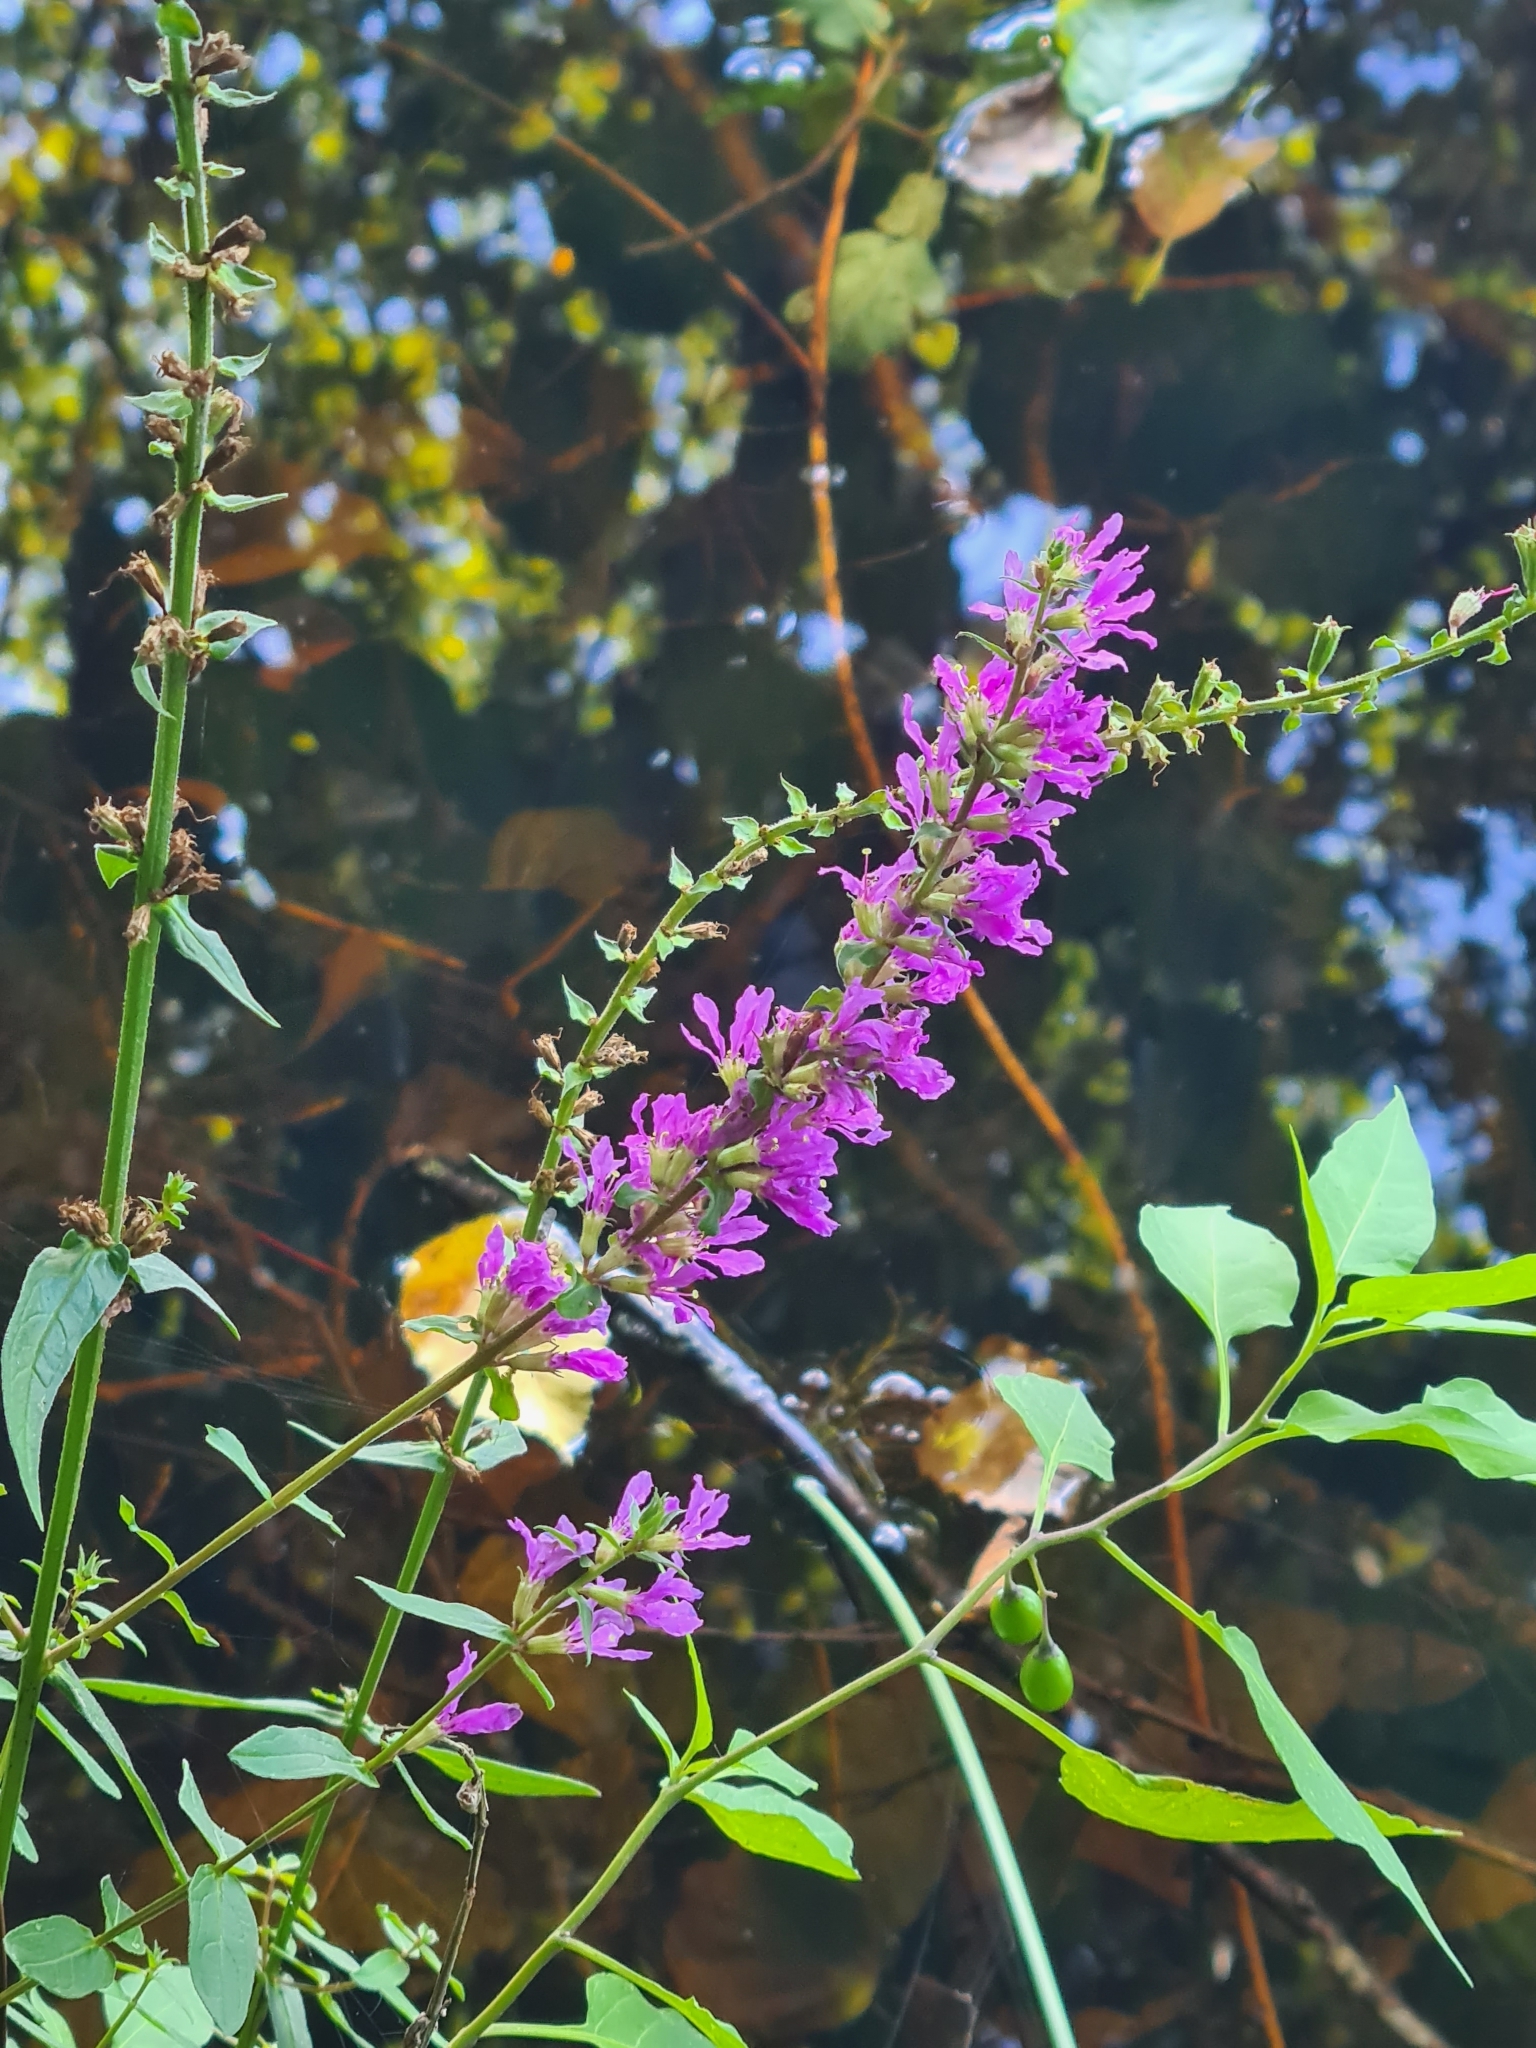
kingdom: Plantae
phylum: Tracheophyta
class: Magnoliopsida
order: Myrtales
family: Lythraceae
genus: Lythrum
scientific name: Lythrum salicaria
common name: Purple loosestrife
